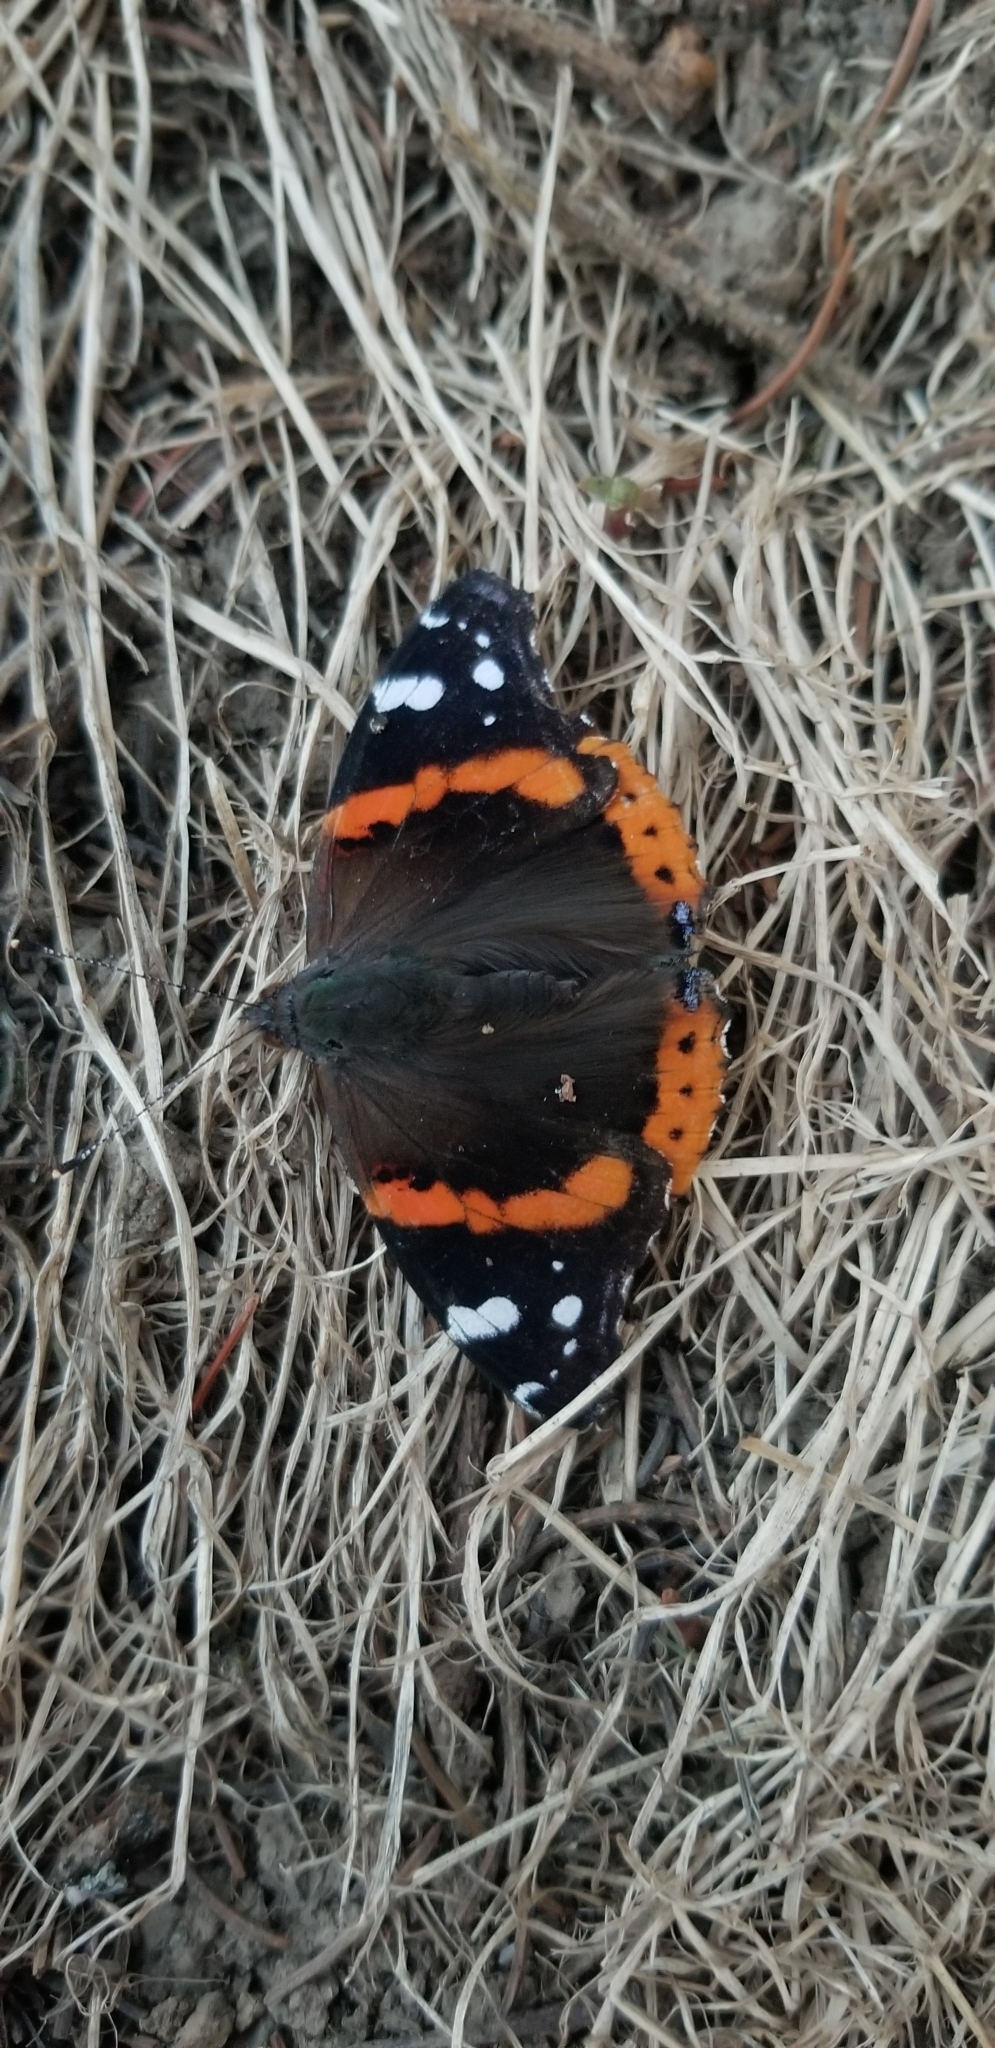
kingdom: Animalia
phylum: Arthropoda
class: Insecta
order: Lepidoptera
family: Nymphalidae
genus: Vanessa
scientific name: Vanessa atalanta
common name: Red admiral
